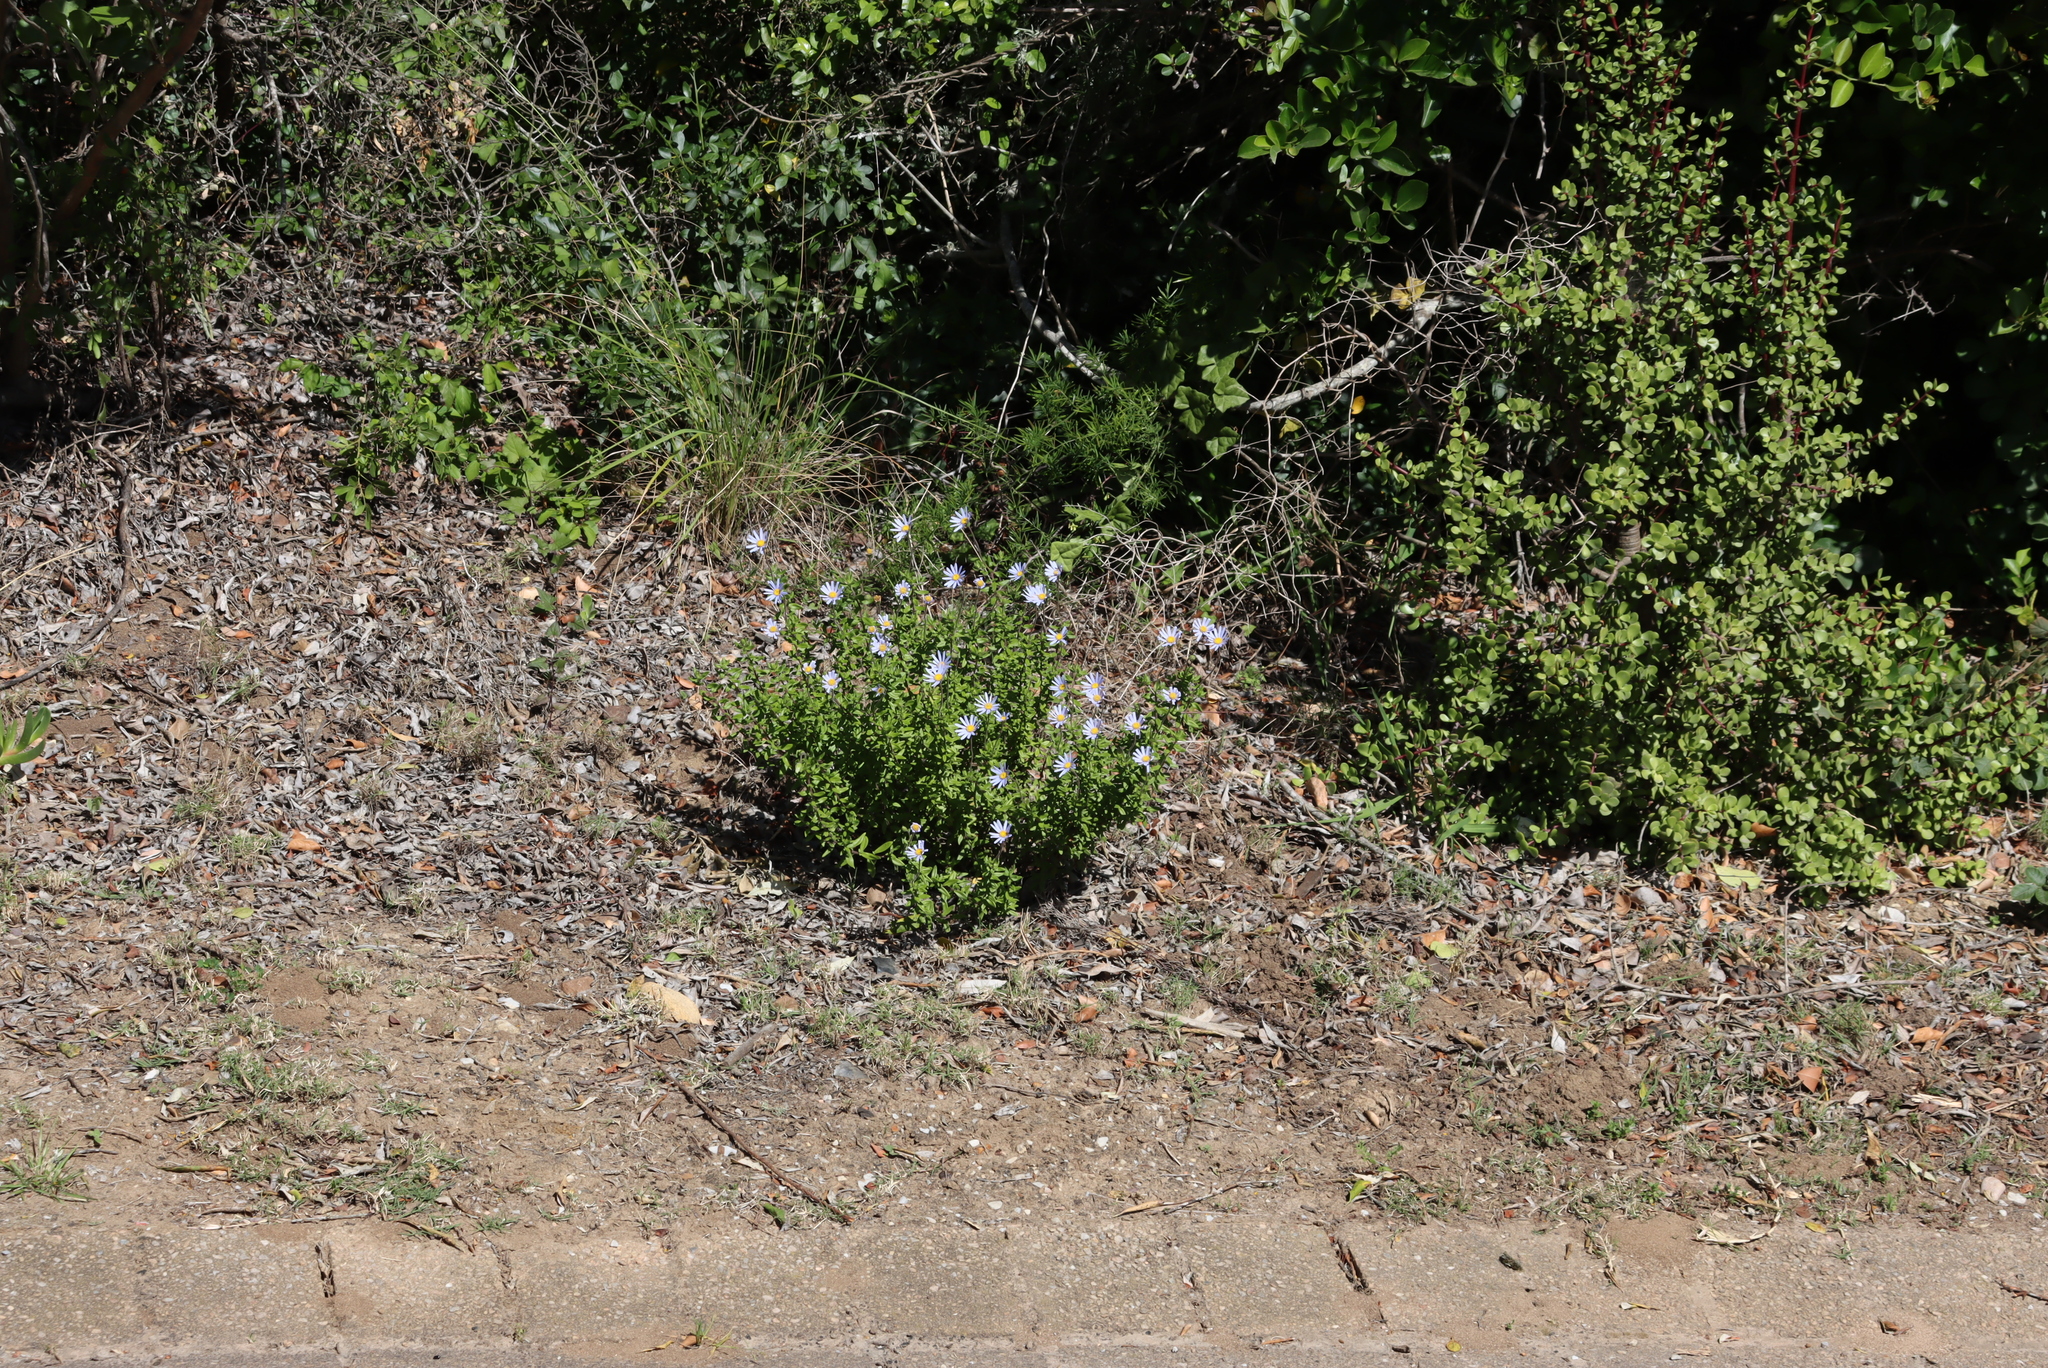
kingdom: Plantae
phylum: Tracheophyta
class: Magnoliopsida
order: Asterales
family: Asteraceae
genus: Felicia
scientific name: Felicia aethiopica
